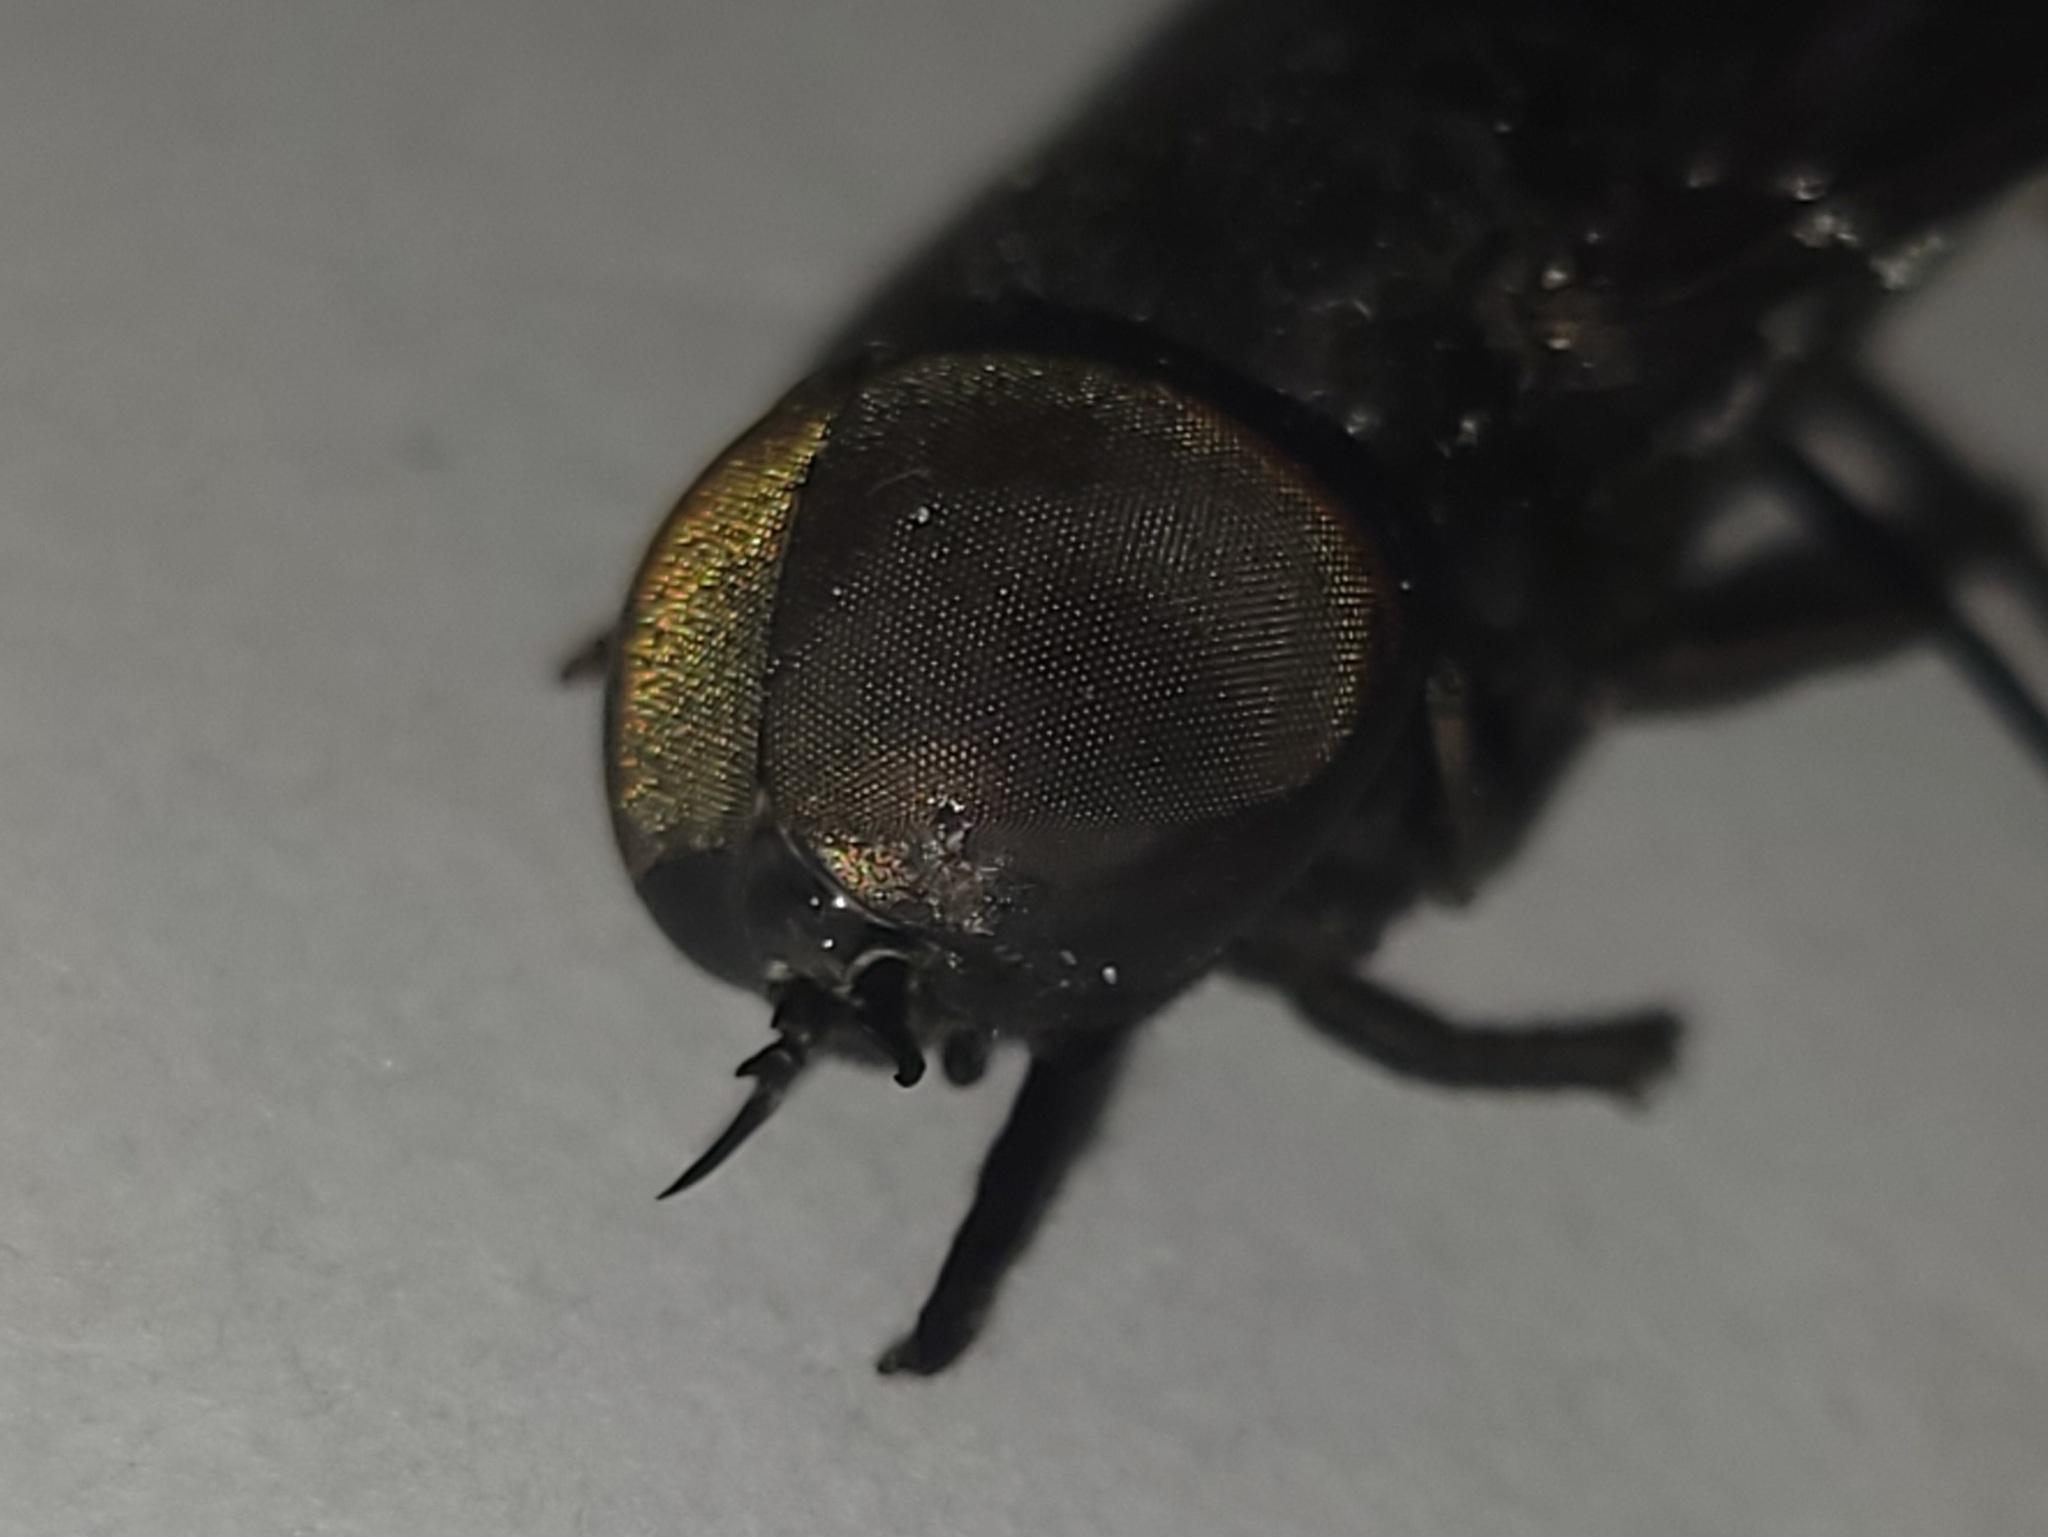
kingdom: Animalia
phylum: Arthropoda
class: Insecta
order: Diptera
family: Tabanidae
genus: Tabanus
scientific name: Tabanus atratus
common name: Black horse fly
